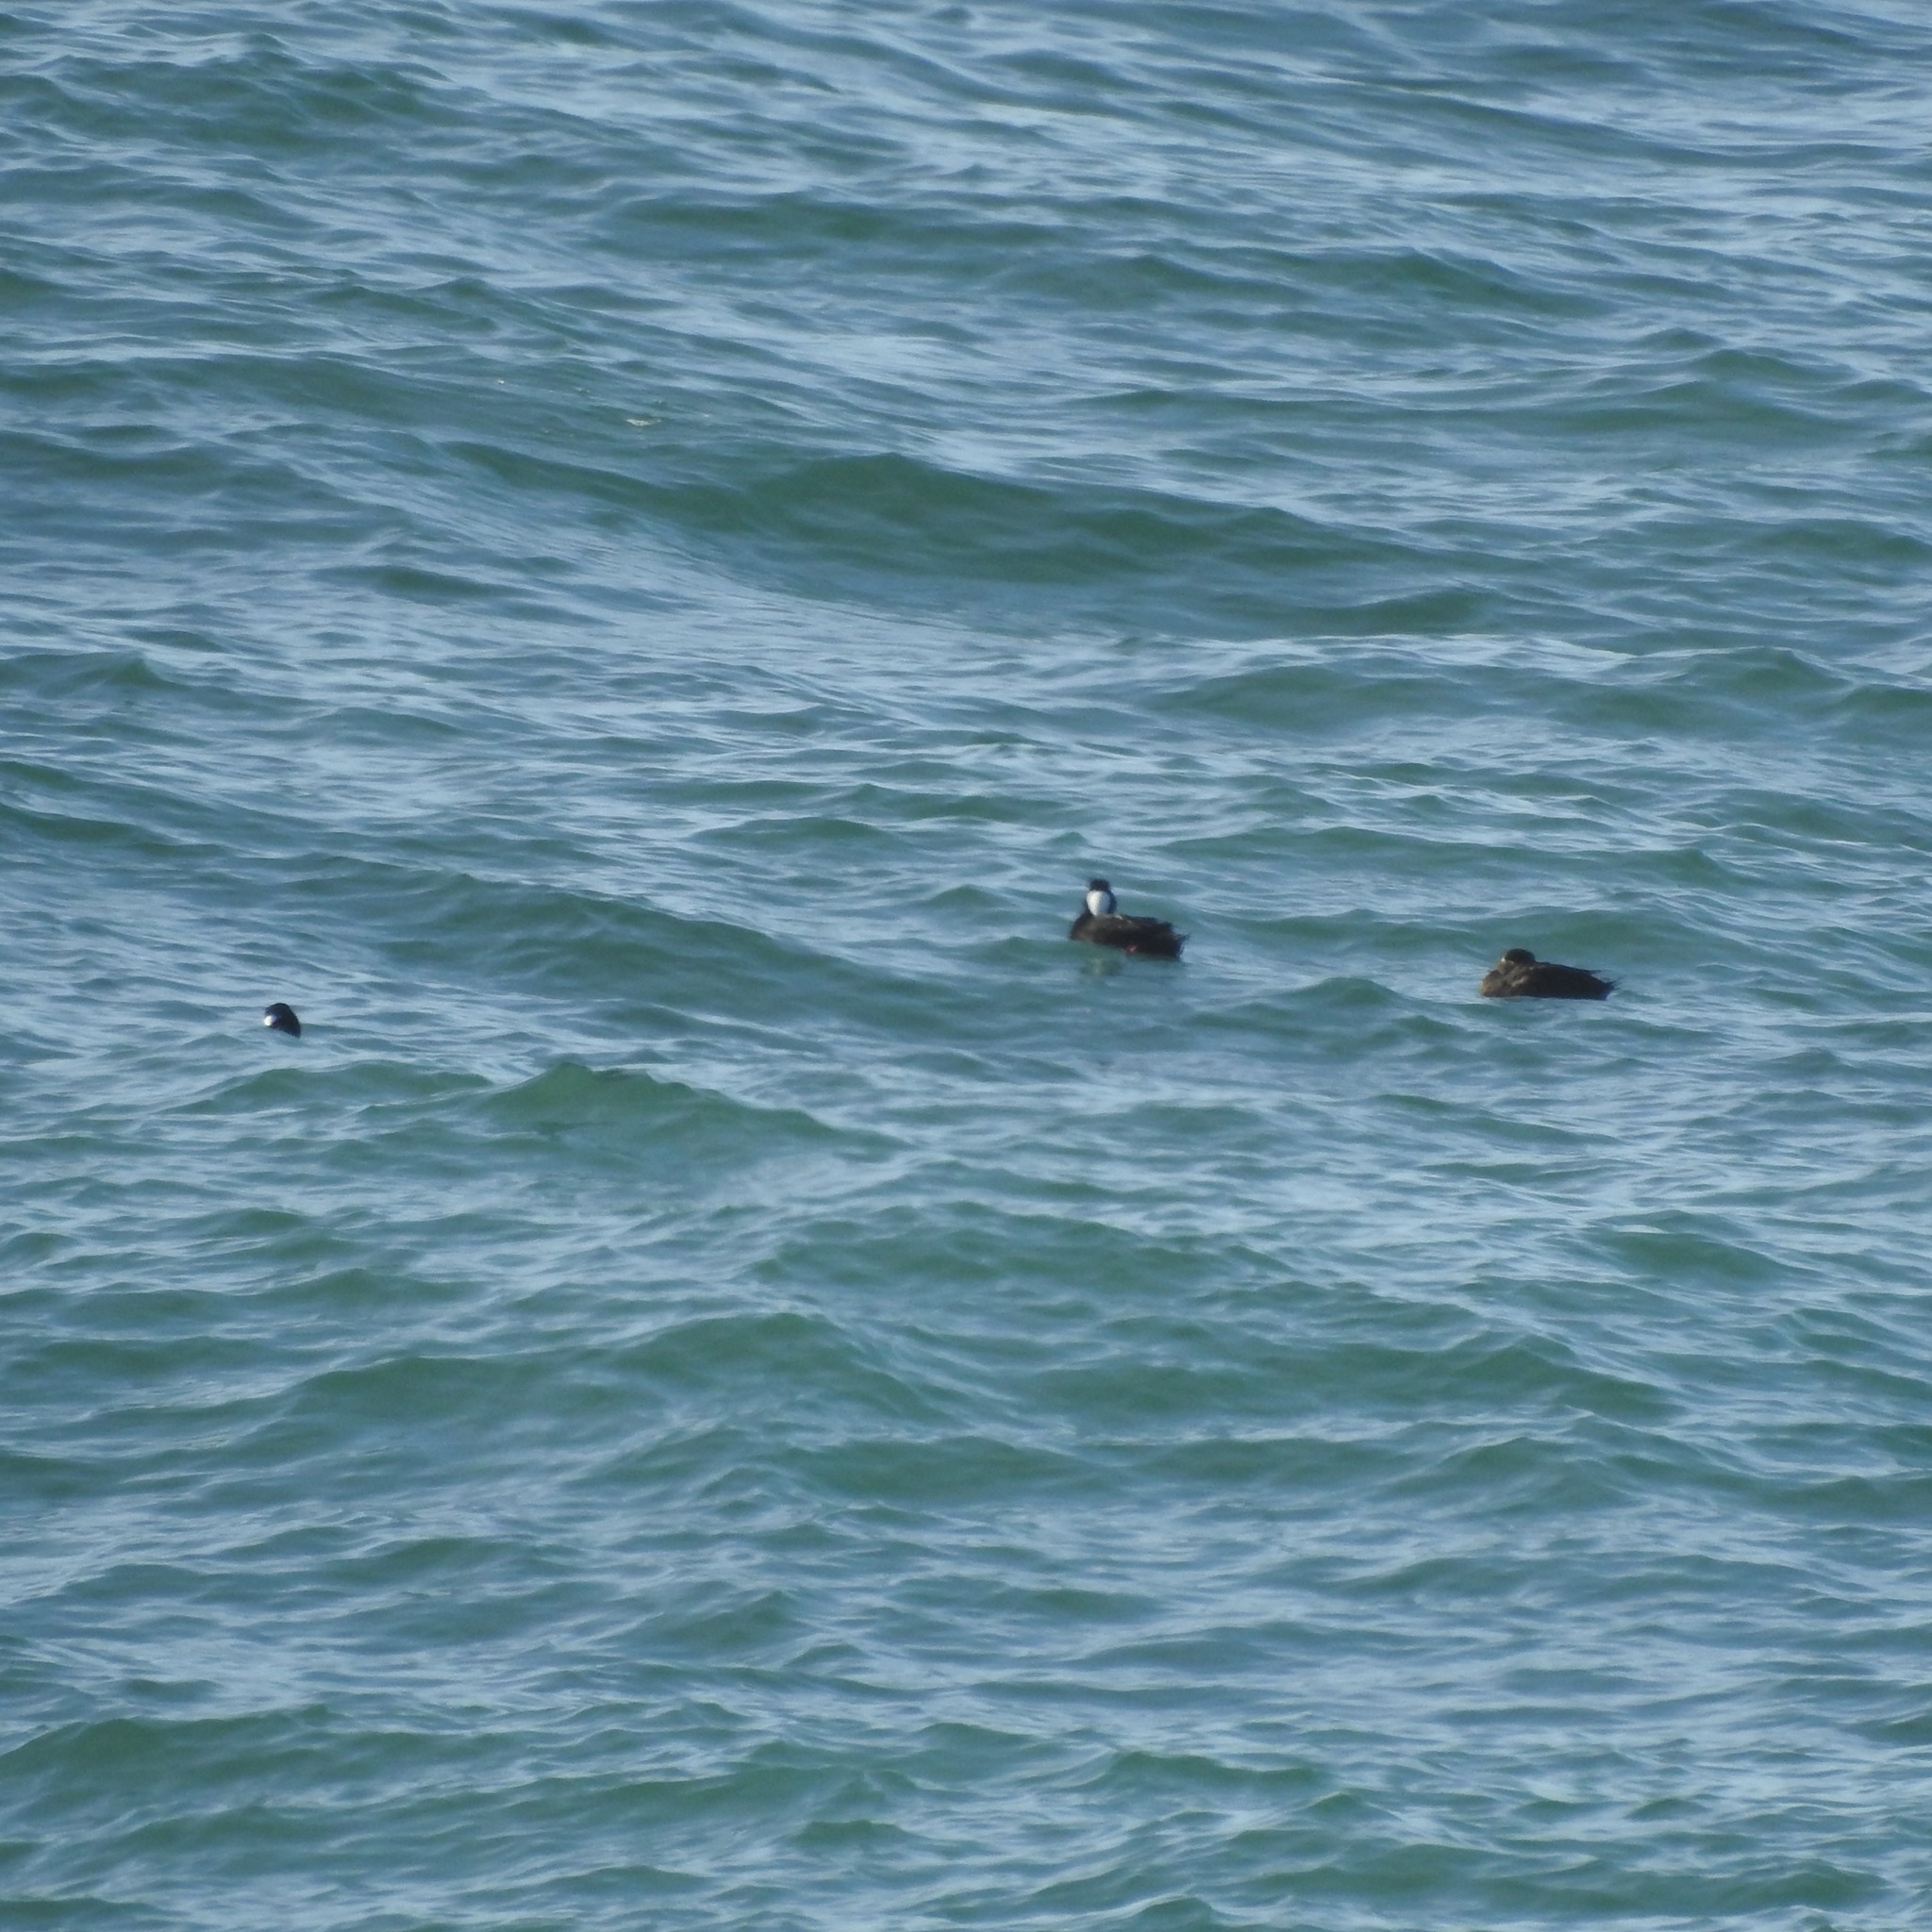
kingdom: Animalia
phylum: Chordata
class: Aves
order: Anseriformes
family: Anatidae
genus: Melanitta
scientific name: Melanitta perspicillata
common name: Surf scoter
